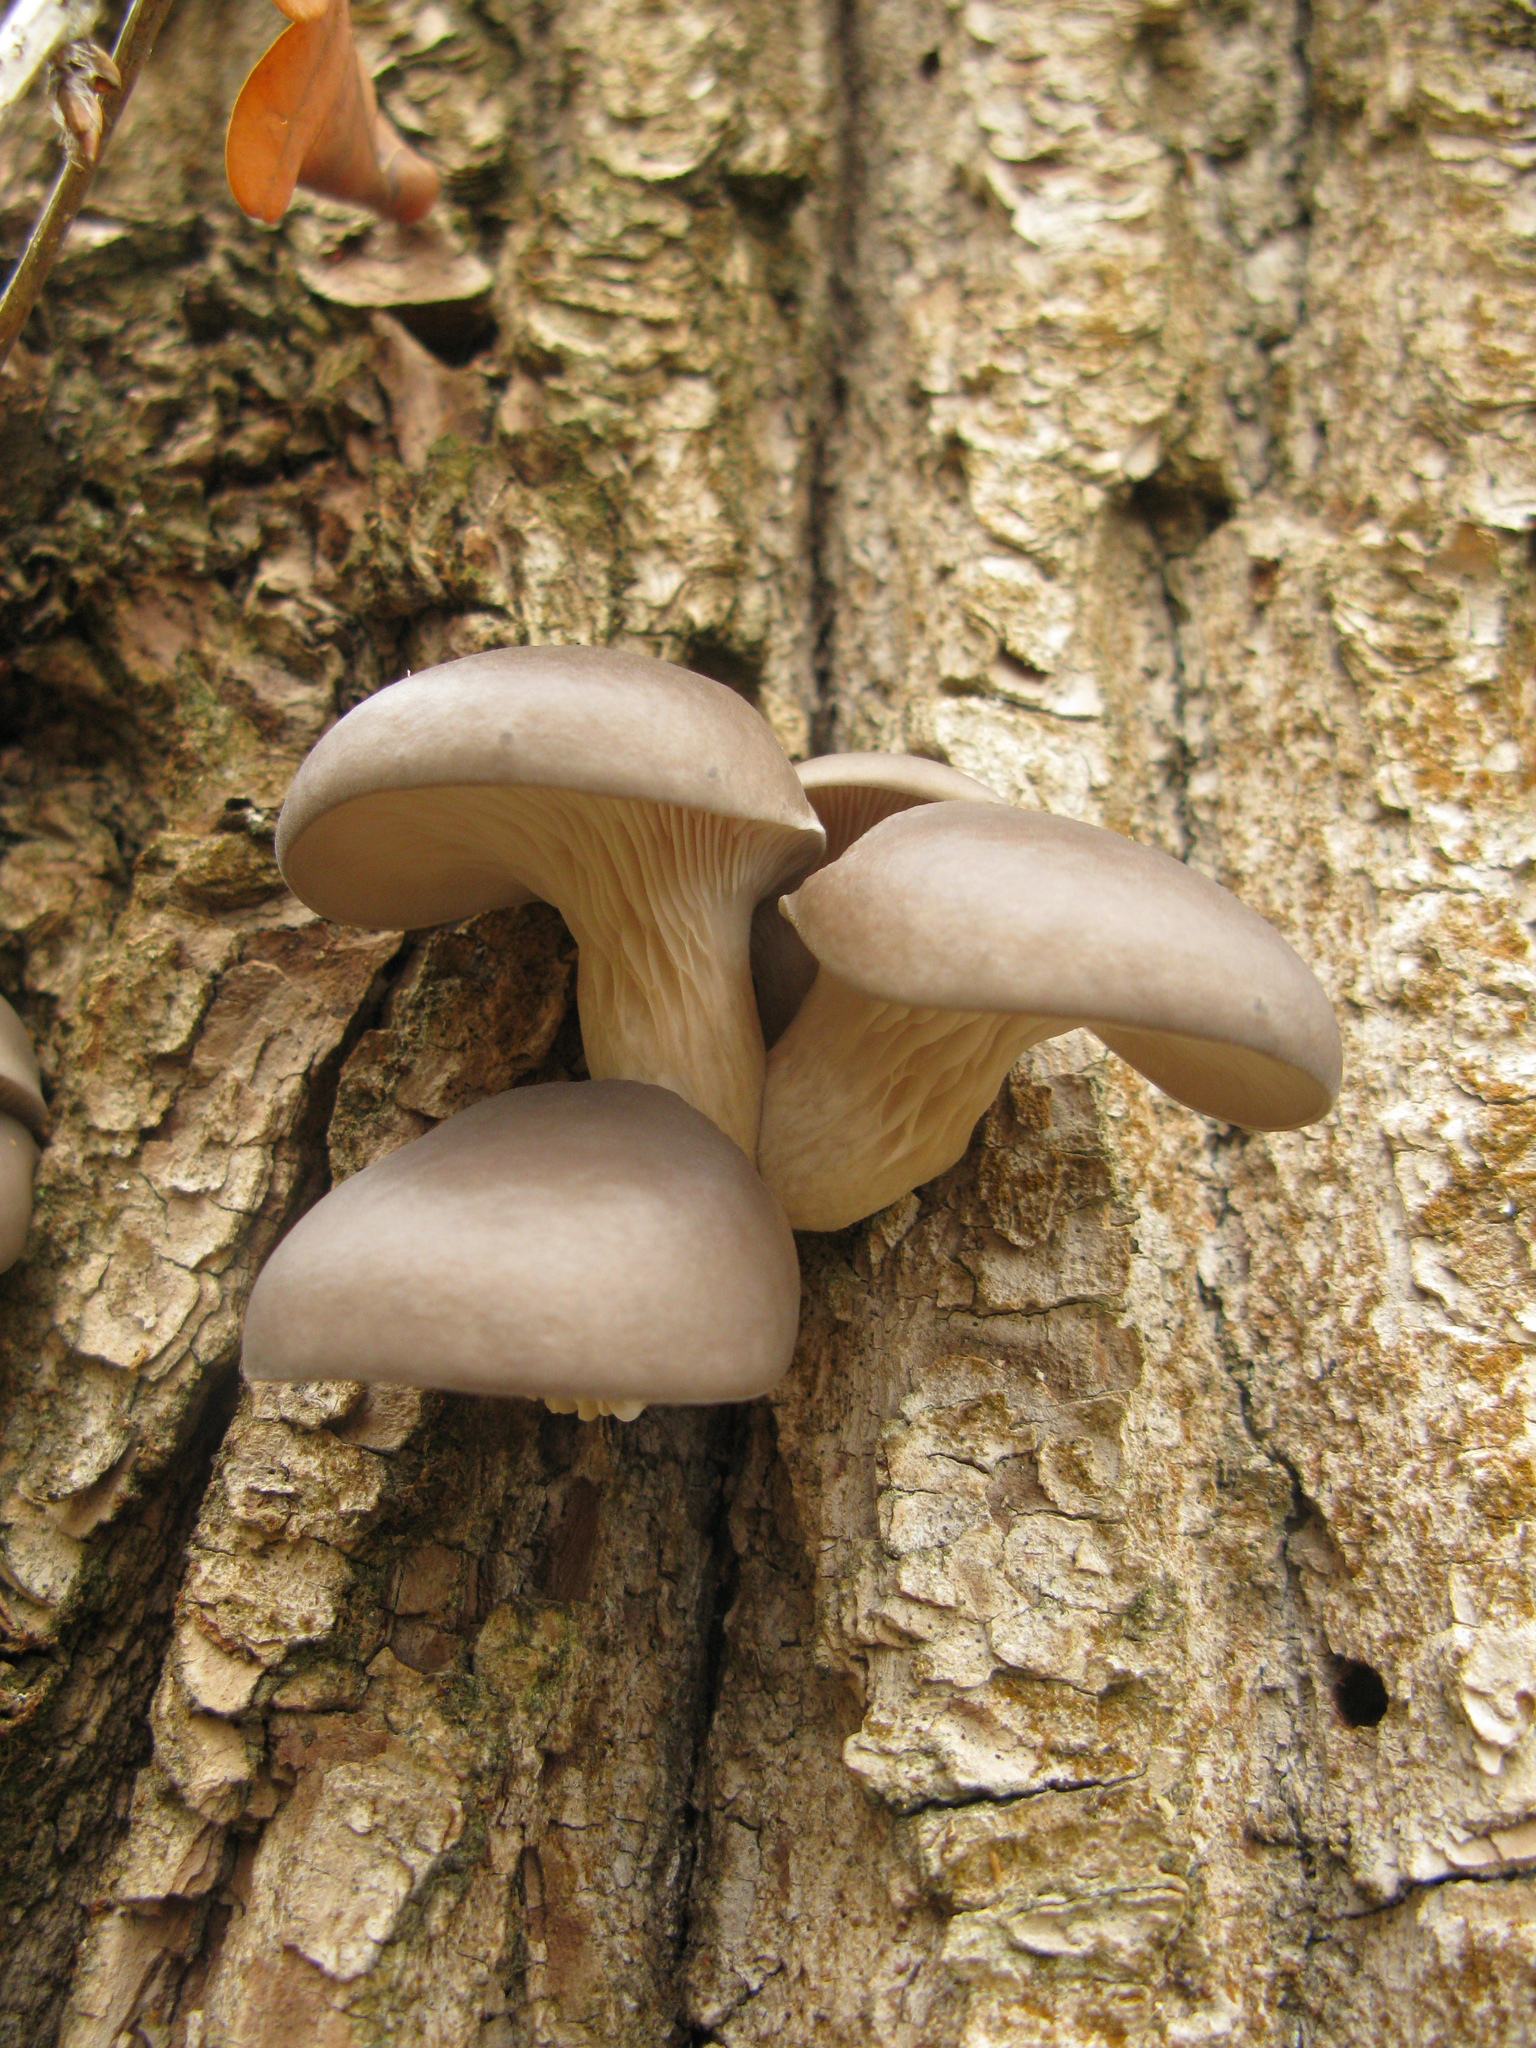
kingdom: Fungi
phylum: Basidiomycota
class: Agaricomycetes
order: Agaricales
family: Pleurotaceae
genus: Pleurotus
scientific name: Pleurotus ostreatus
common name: Oyster mushroom
